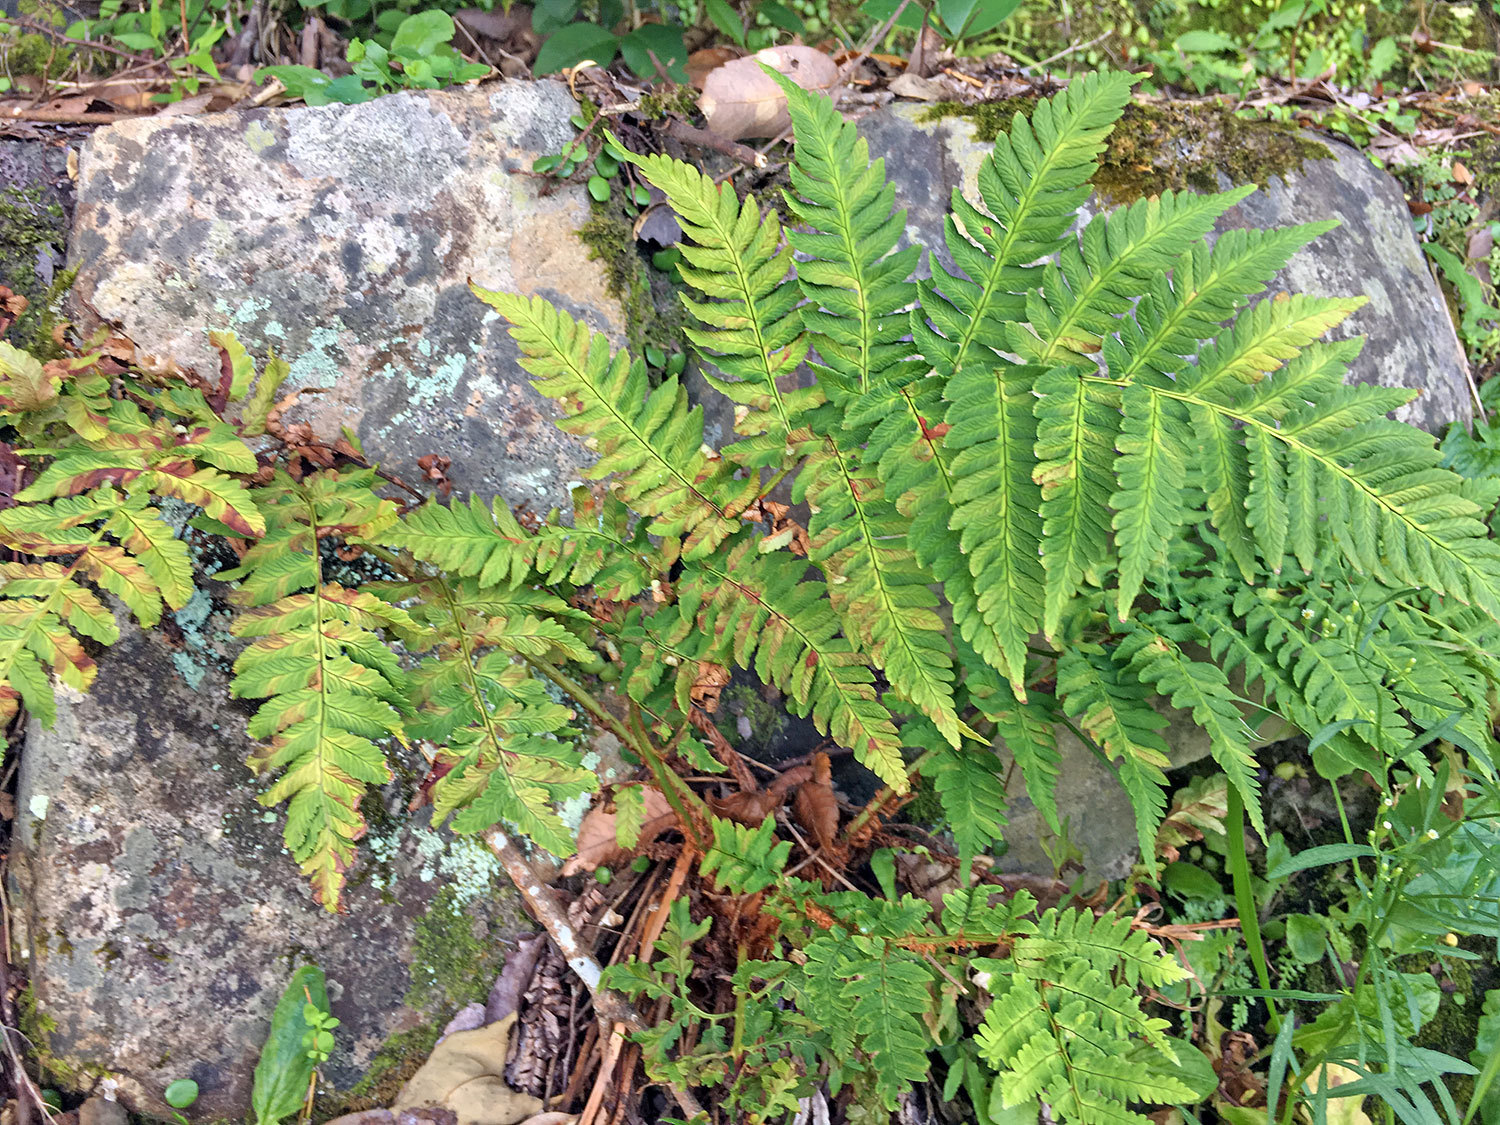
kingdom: Plantae
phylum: Tracheophyta
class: Polypodiopsida
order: Polypodiales
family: Dryopteridaceae
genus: Dryopteris
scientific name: Dryopteris lacera
